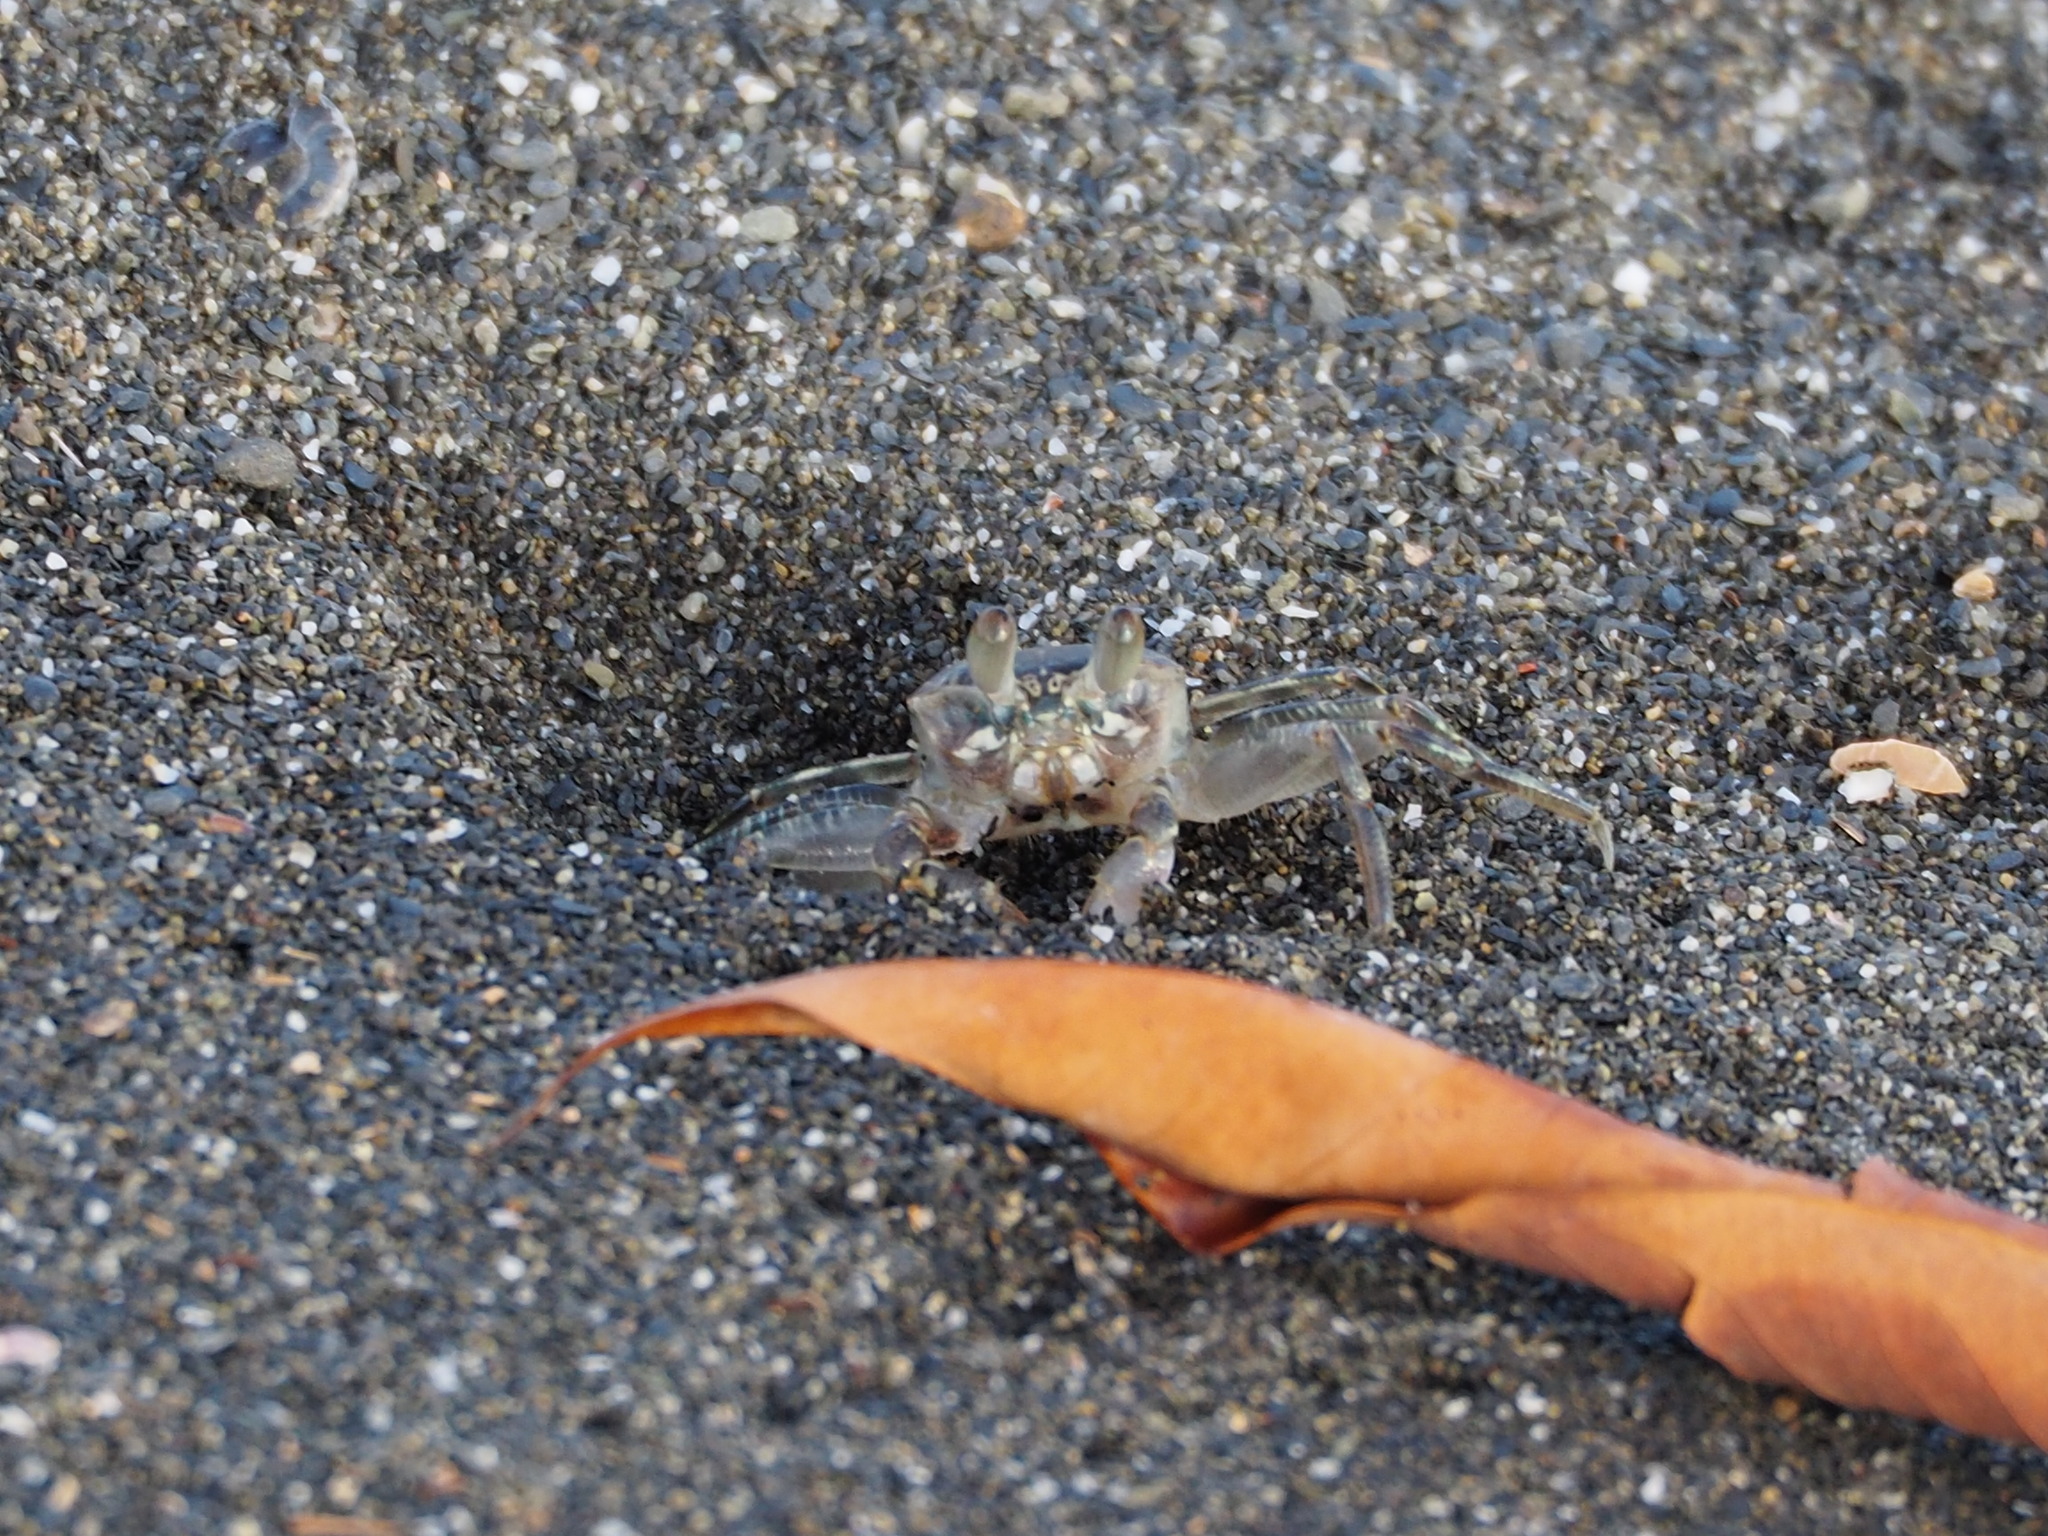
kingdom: Animalia
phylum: Arthropoda
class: Malacostraca
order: Decapoda
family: Ocypodidae
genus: Ocypode
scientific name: Ocypode ceratophthalmus
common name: Indo-pacific ghost crab
